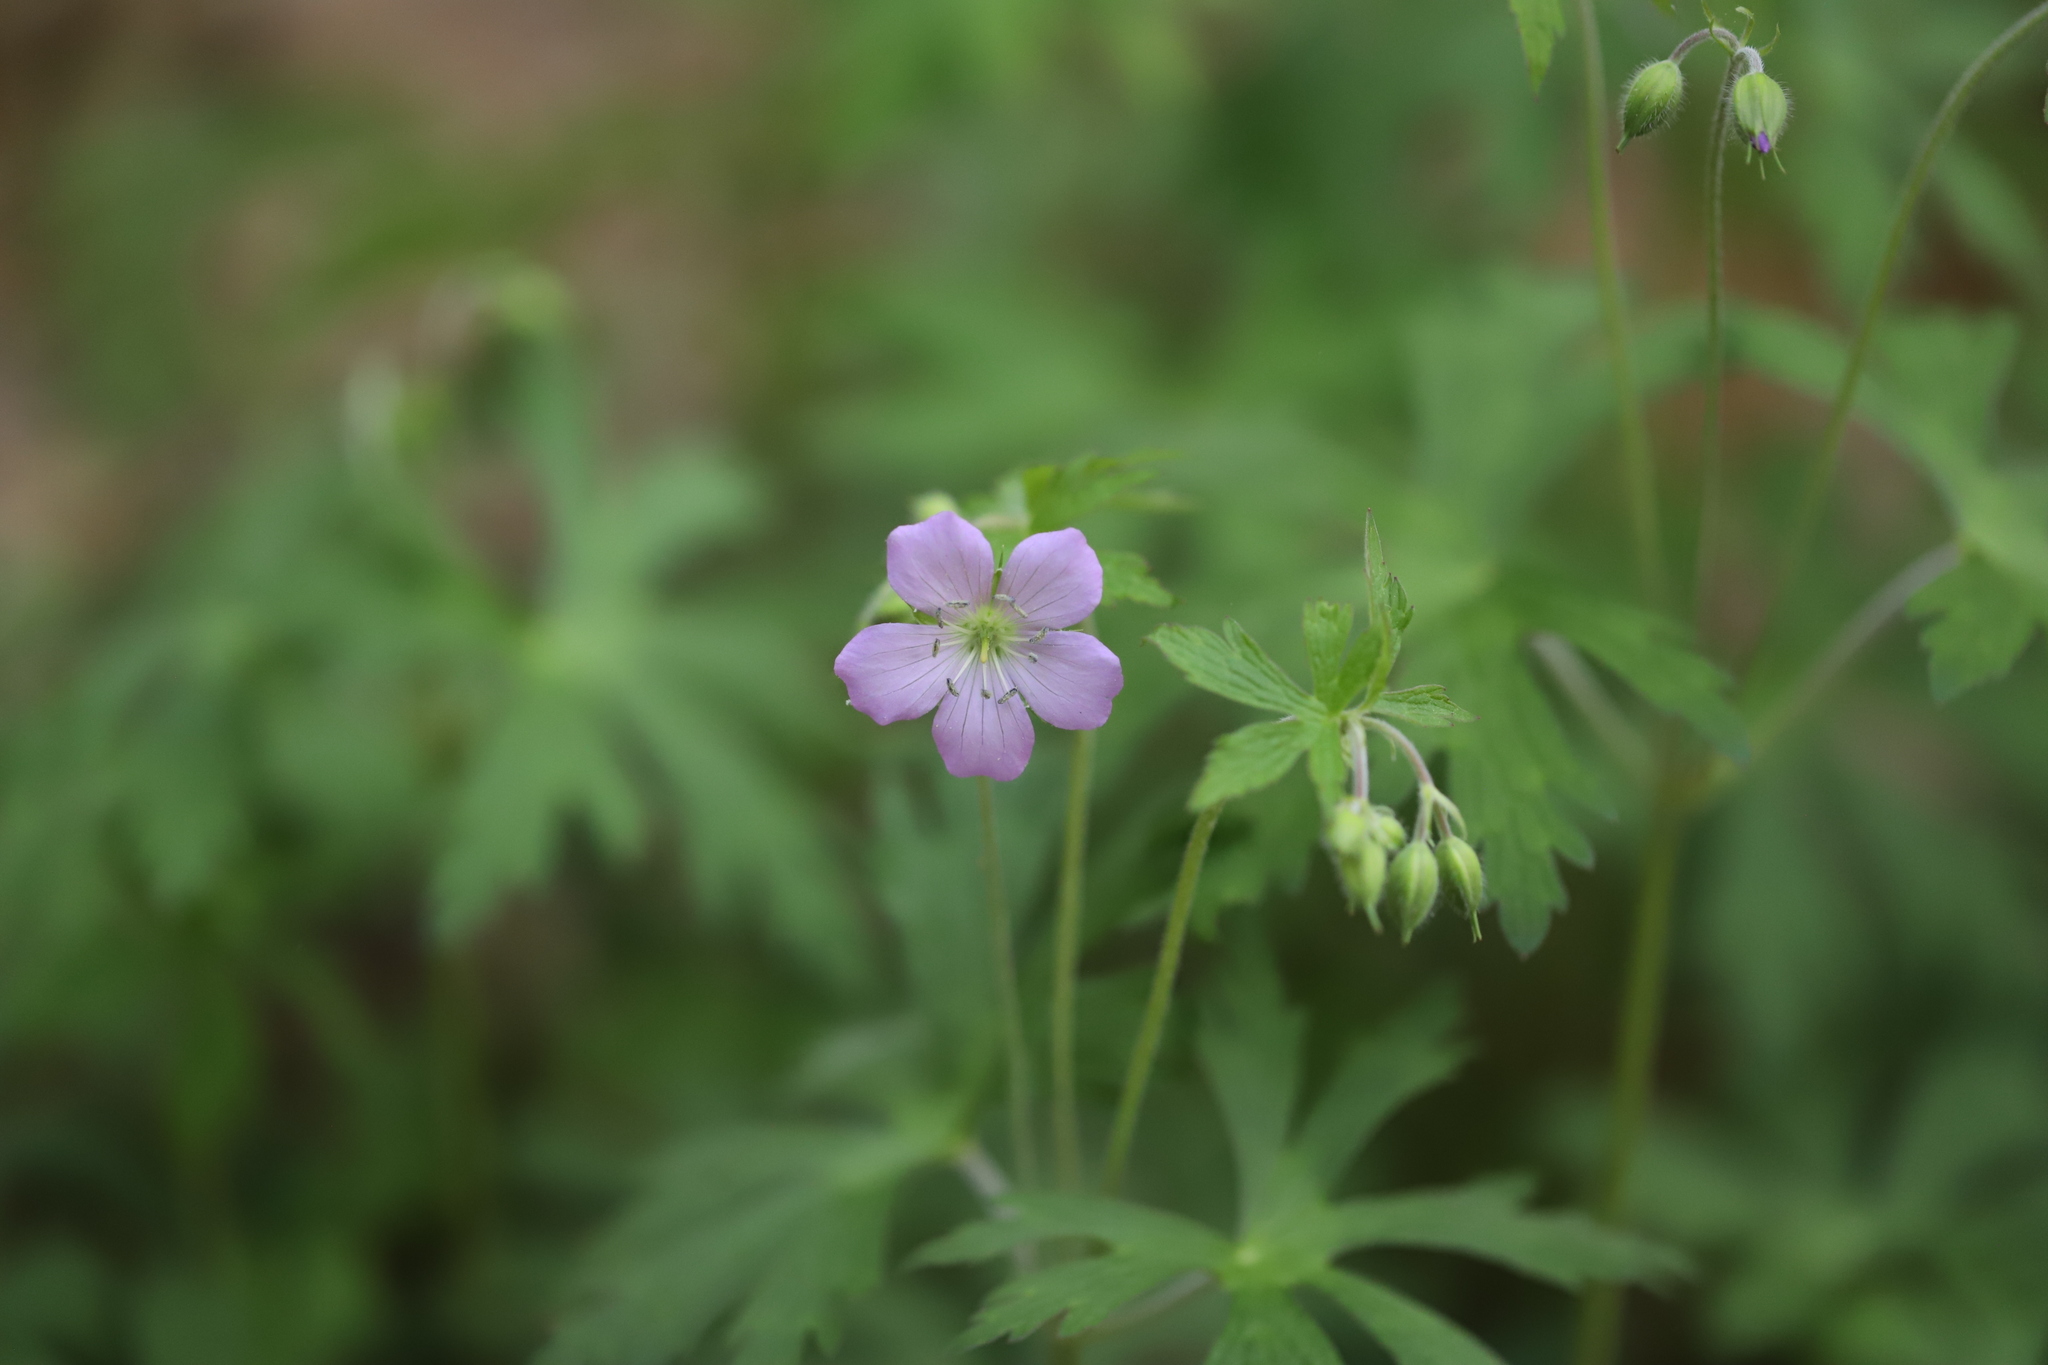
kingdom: Plantae
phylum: Tracheophyta
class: Magnoliopsida
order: Geraniales
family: Geraniaceae
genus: Geranium
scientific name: Geranium maculatum
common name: Spotted geranium
